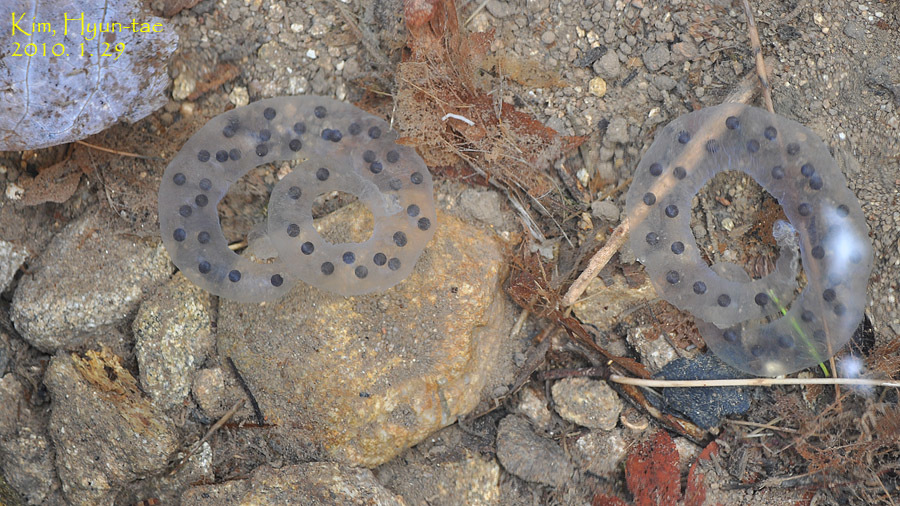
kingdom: Animalia
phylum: Chordata
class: Amphibia
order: Caudata
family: Hynobiidae
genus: Hynobius
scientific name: Hynobius leechii
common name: Gensan salamander
